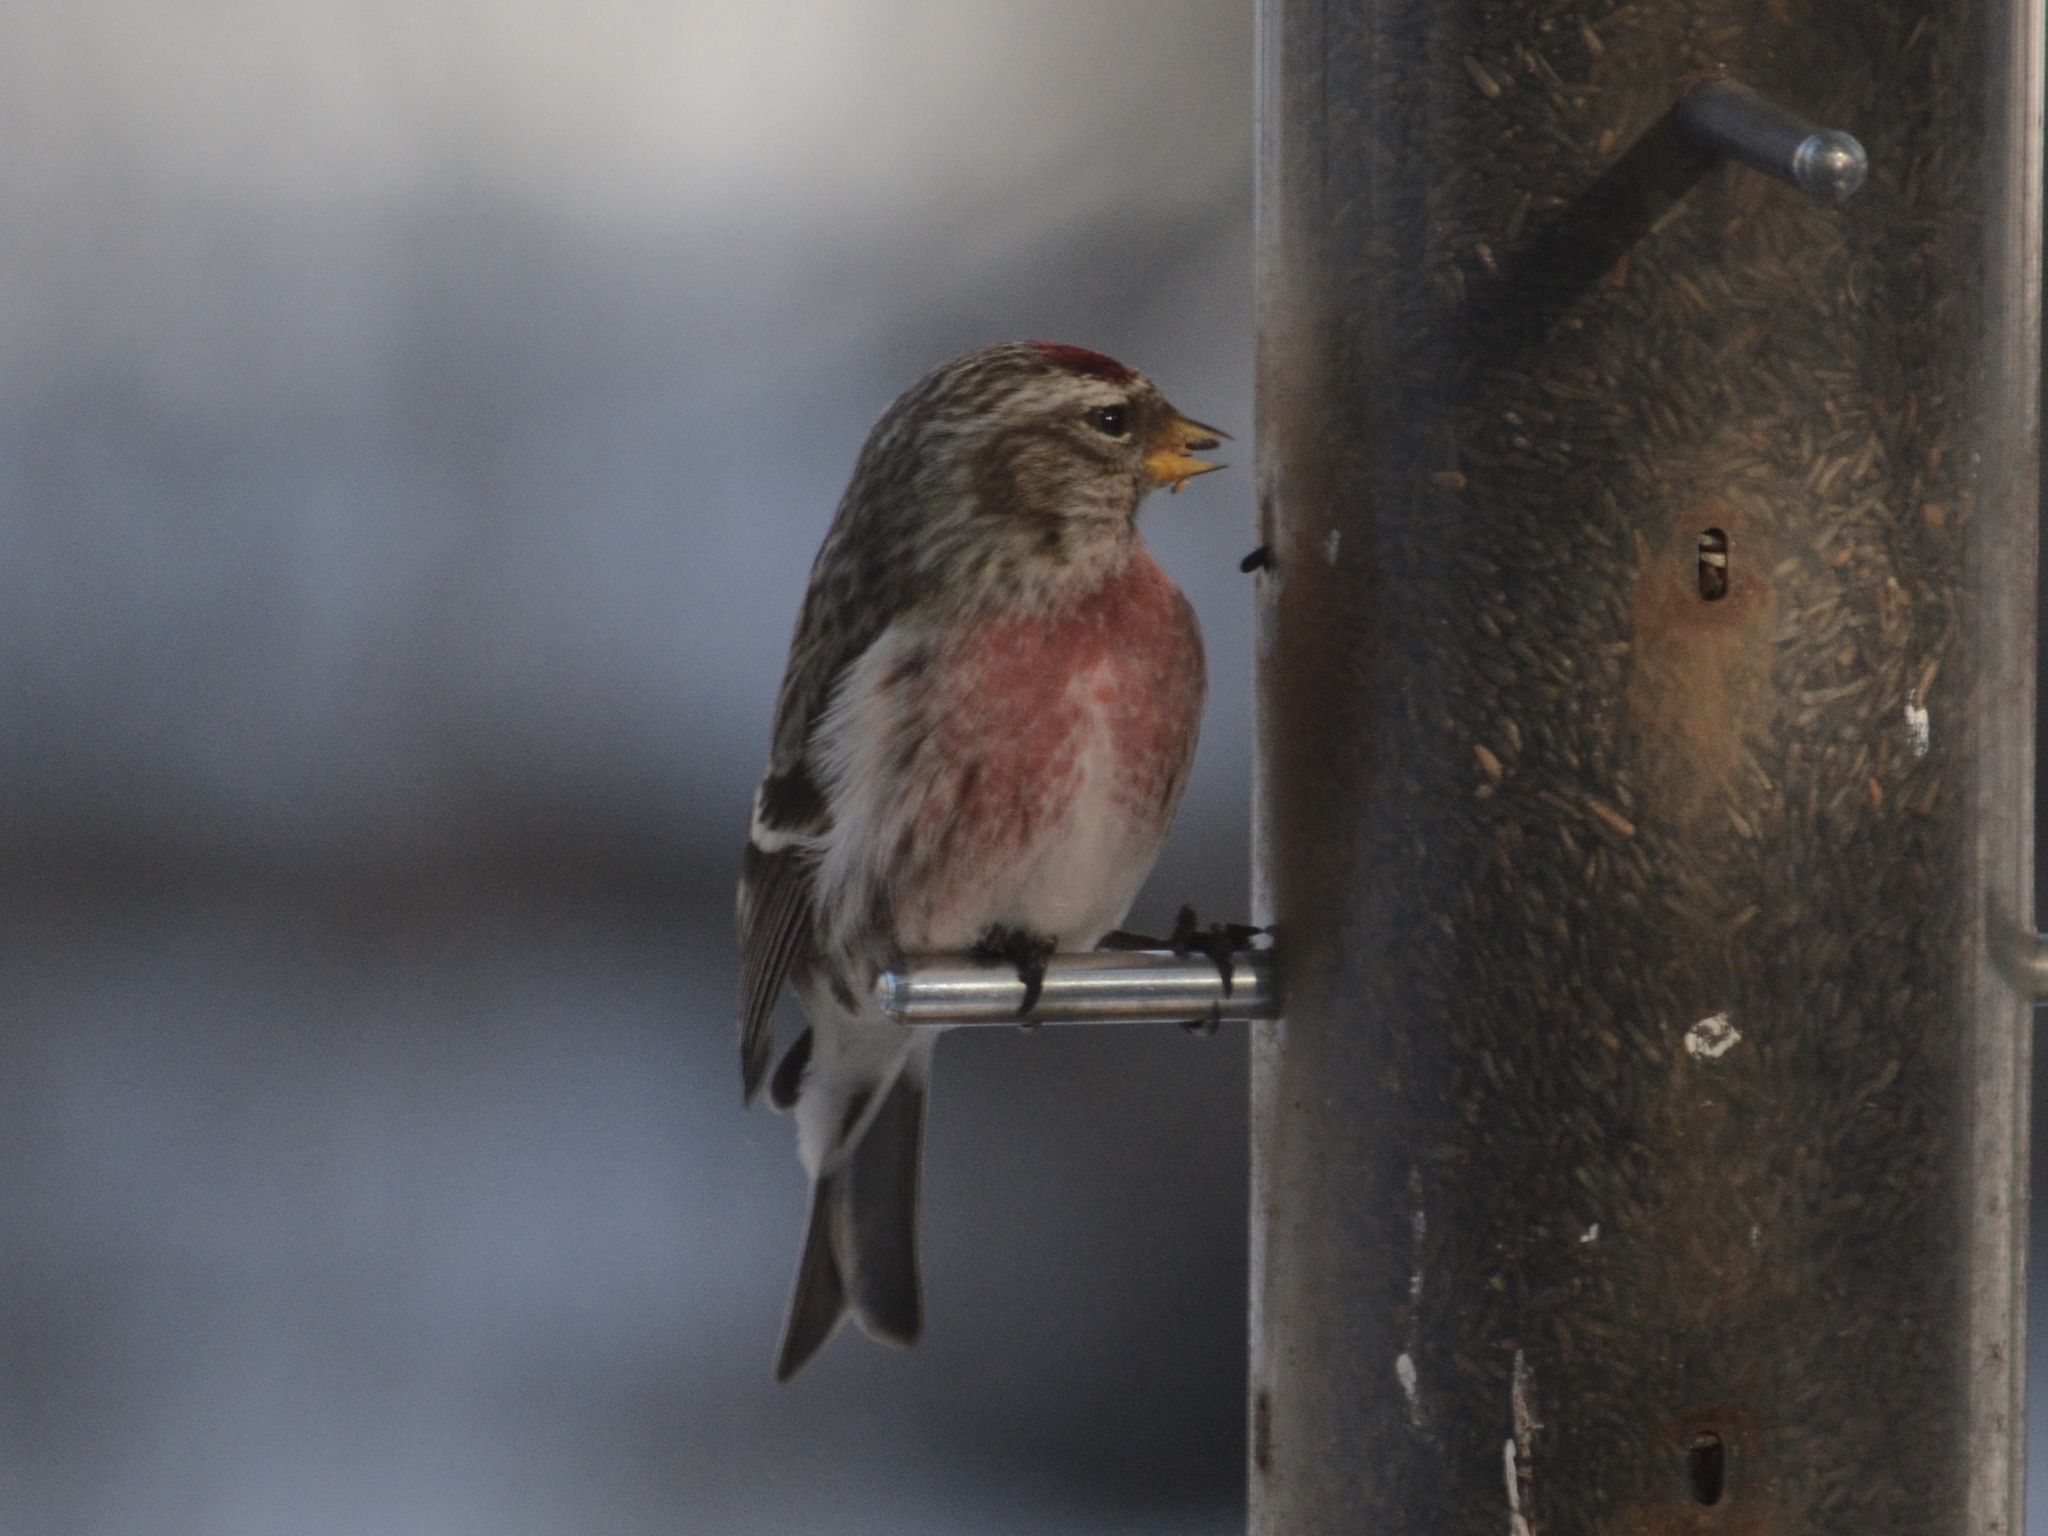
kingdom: Animalia
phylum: Chordata
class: Aves
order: Passeriformes
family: Fringillidae
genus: Acanthis
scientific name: Acanthis flammea
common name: Common redpoll
